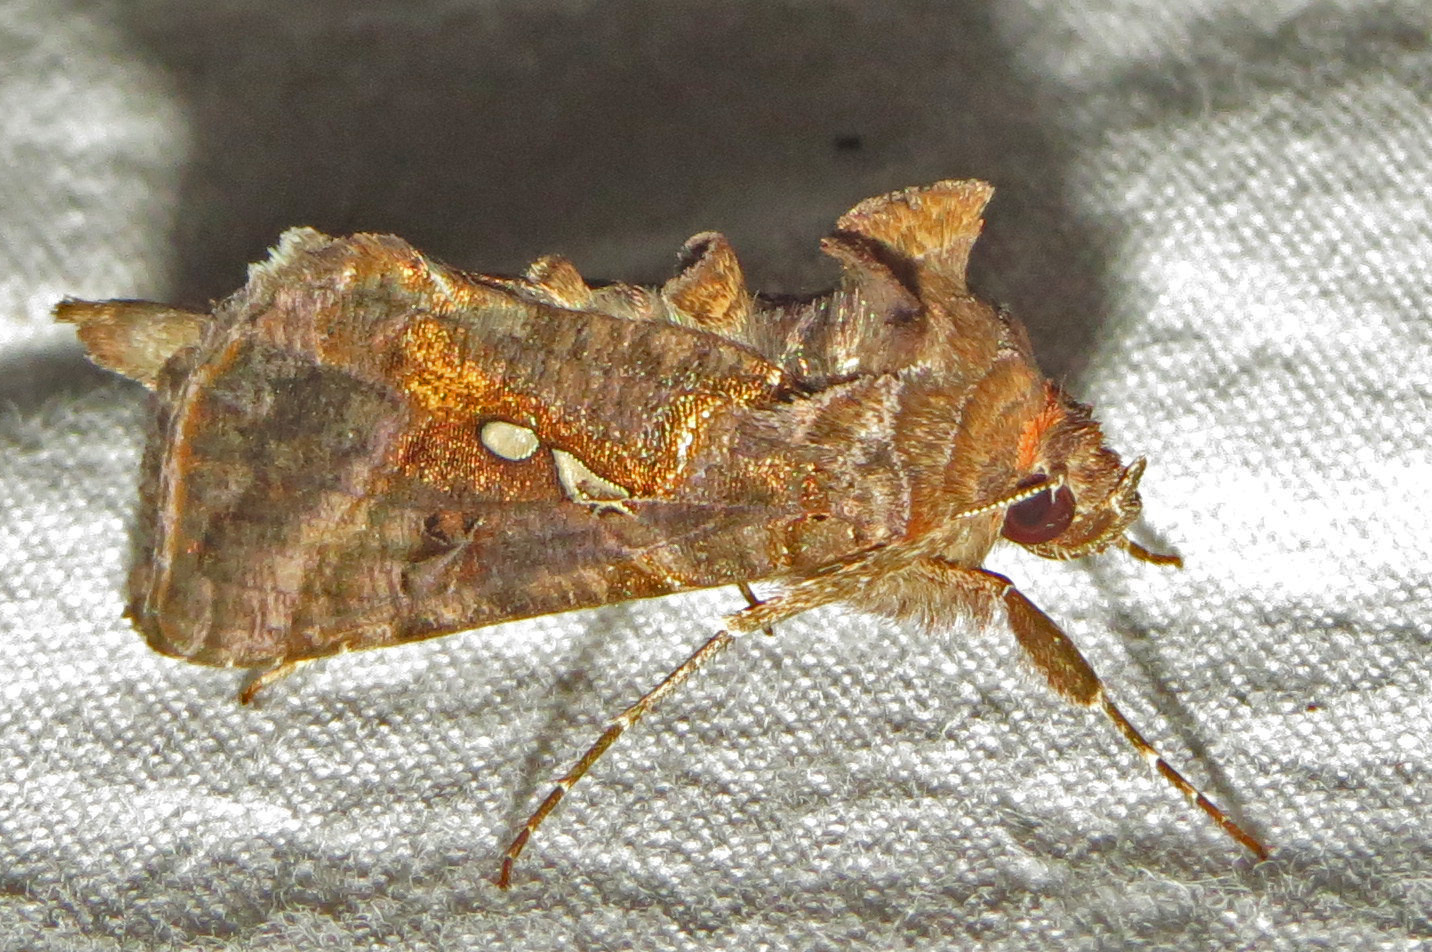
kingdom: Animalia
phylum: Arthropoda
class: Insecta
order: Lepidoptera
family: Noctuidae
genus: Autographa
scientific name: Autographa precationis
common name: Common looper moth
